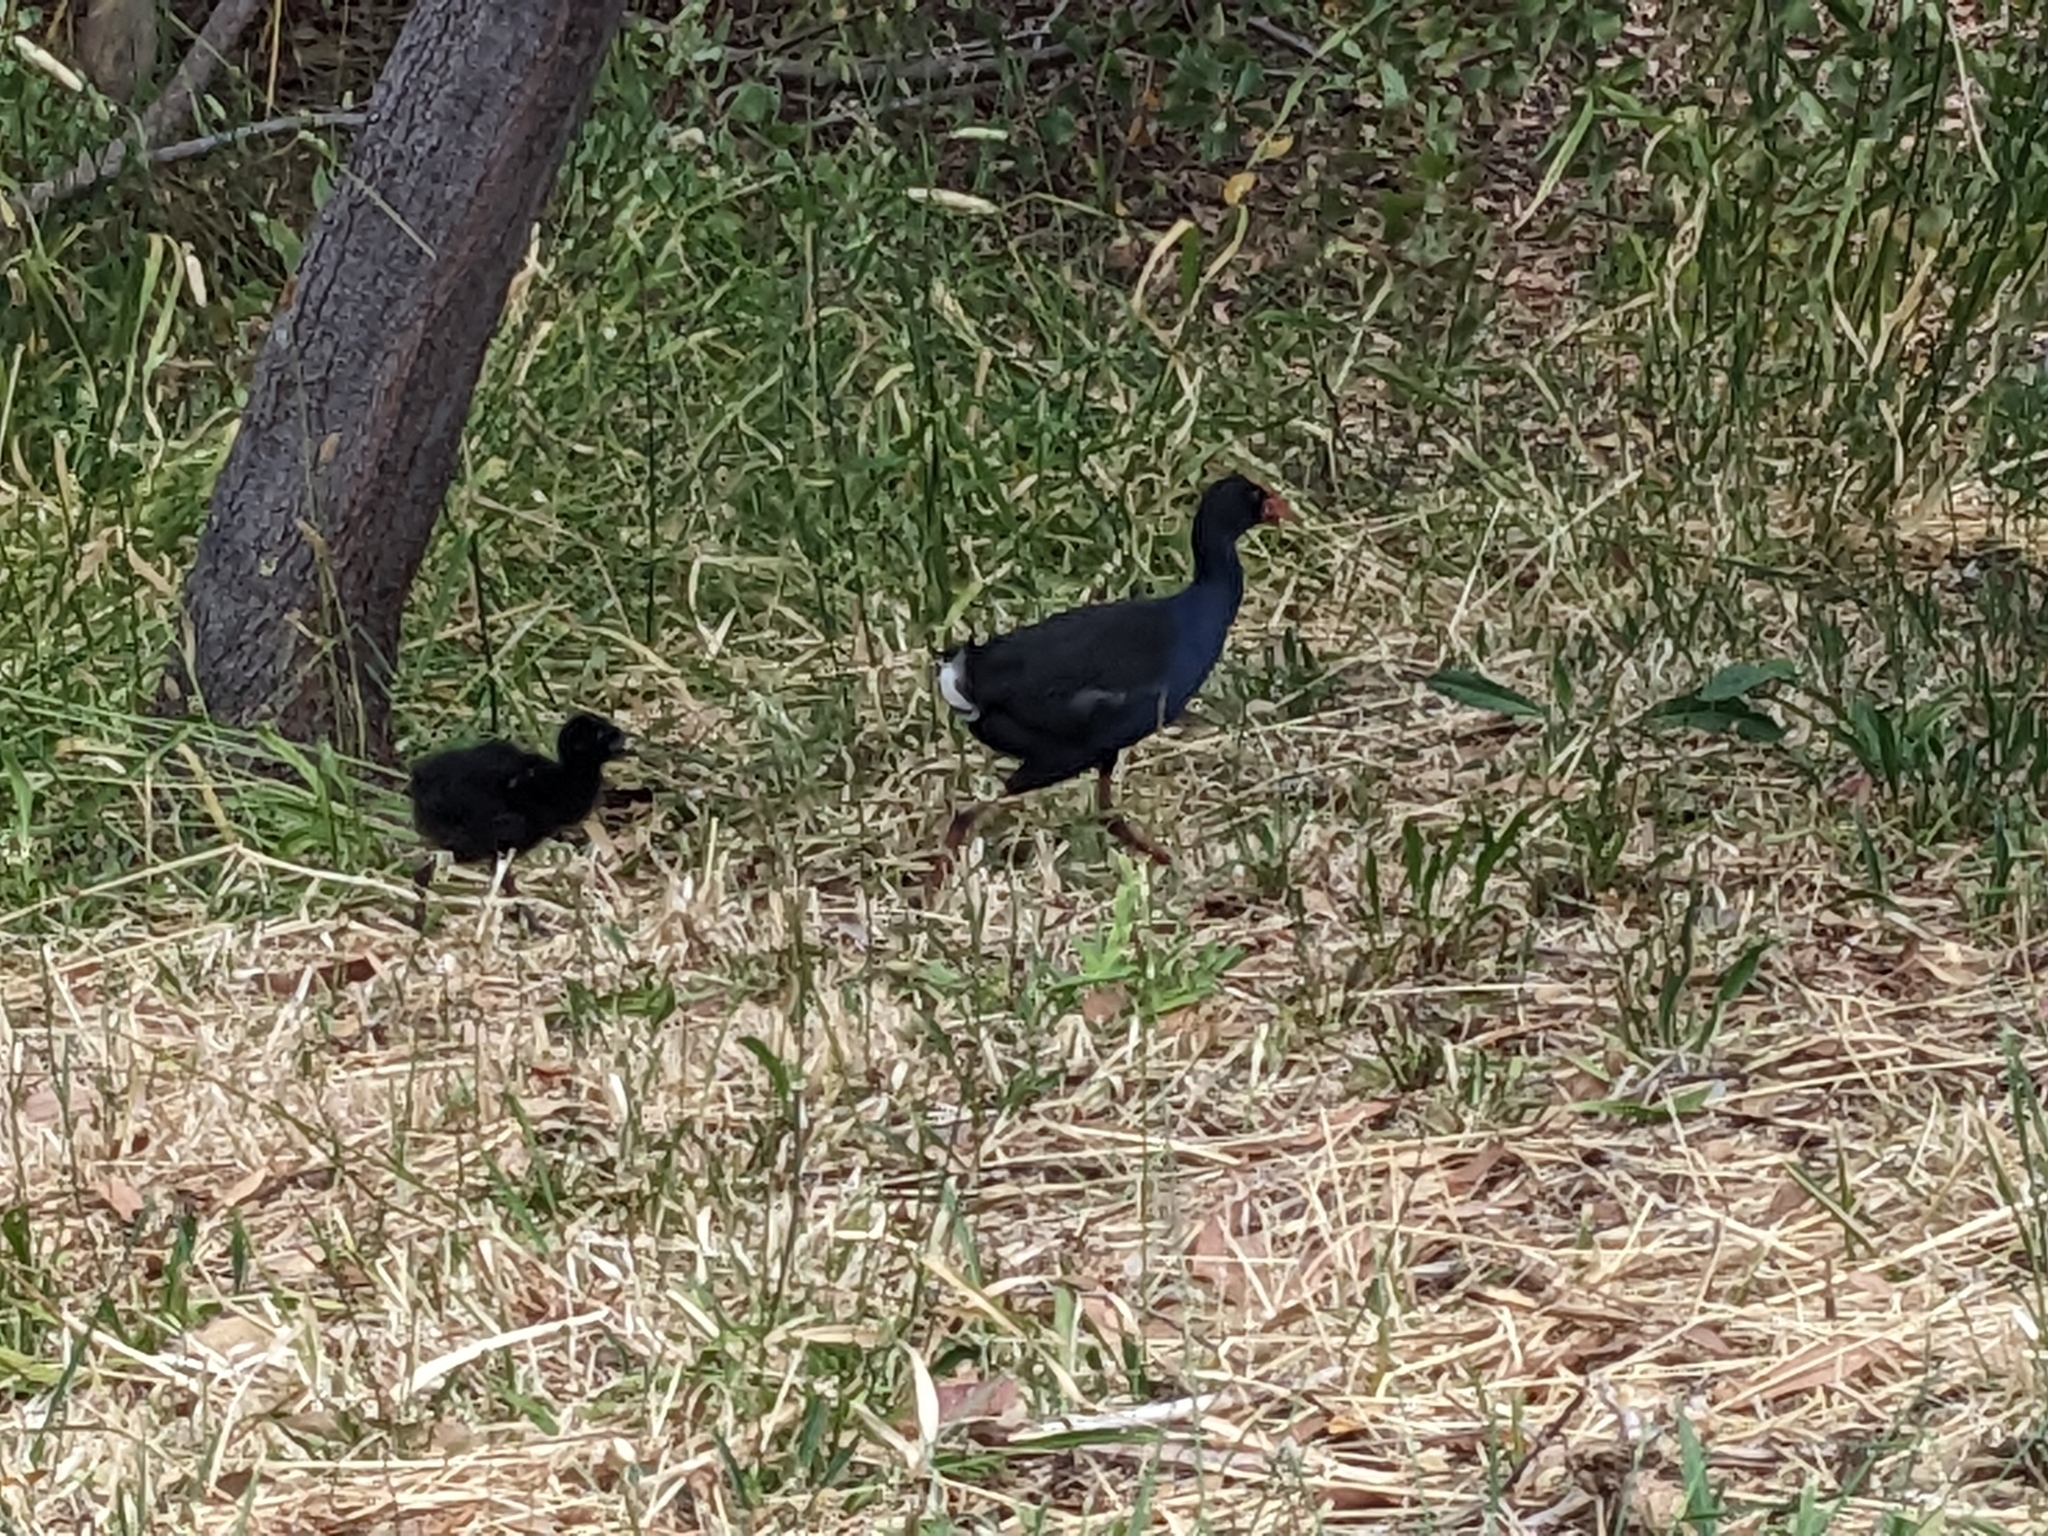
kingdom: Animalia
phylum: Chordata
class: Aves
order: Gruiformes
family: Rallidae
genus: Porphyrio
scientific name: Porphyrio melanotus
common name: Australasian swamphen
